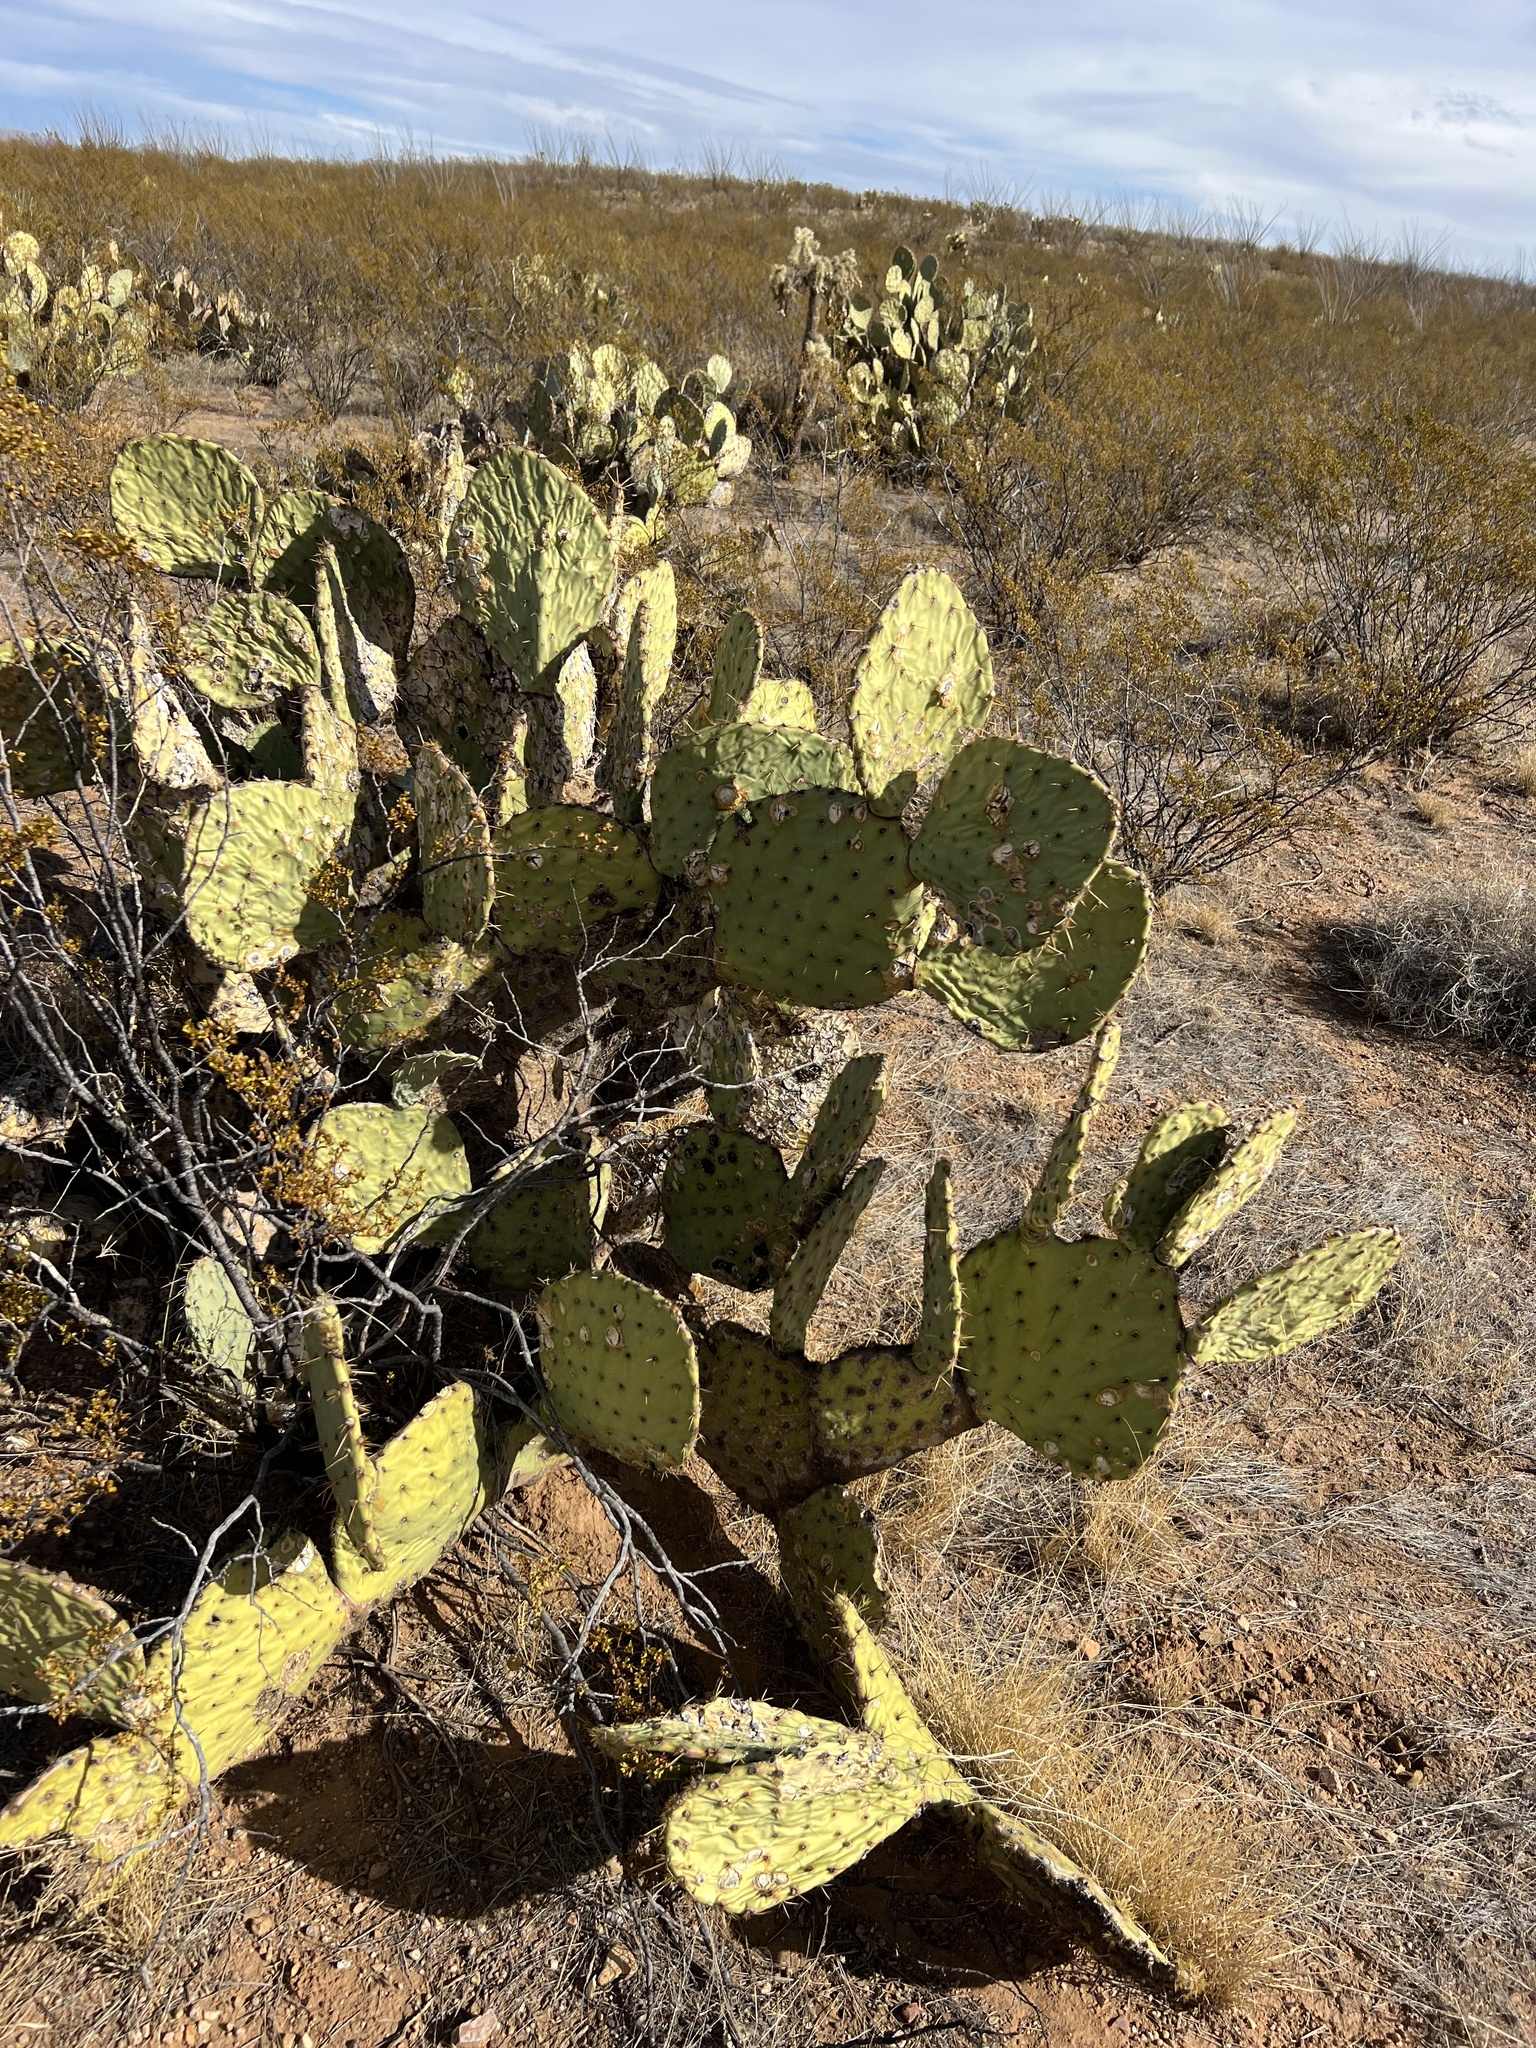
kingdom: Plantae
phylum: Tracheophyta
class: Magnoliopsida
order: Caryophyllales
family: Cactaceae
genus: Opuntia
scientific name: Opuntia engelmannii
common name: Cactus-apple
